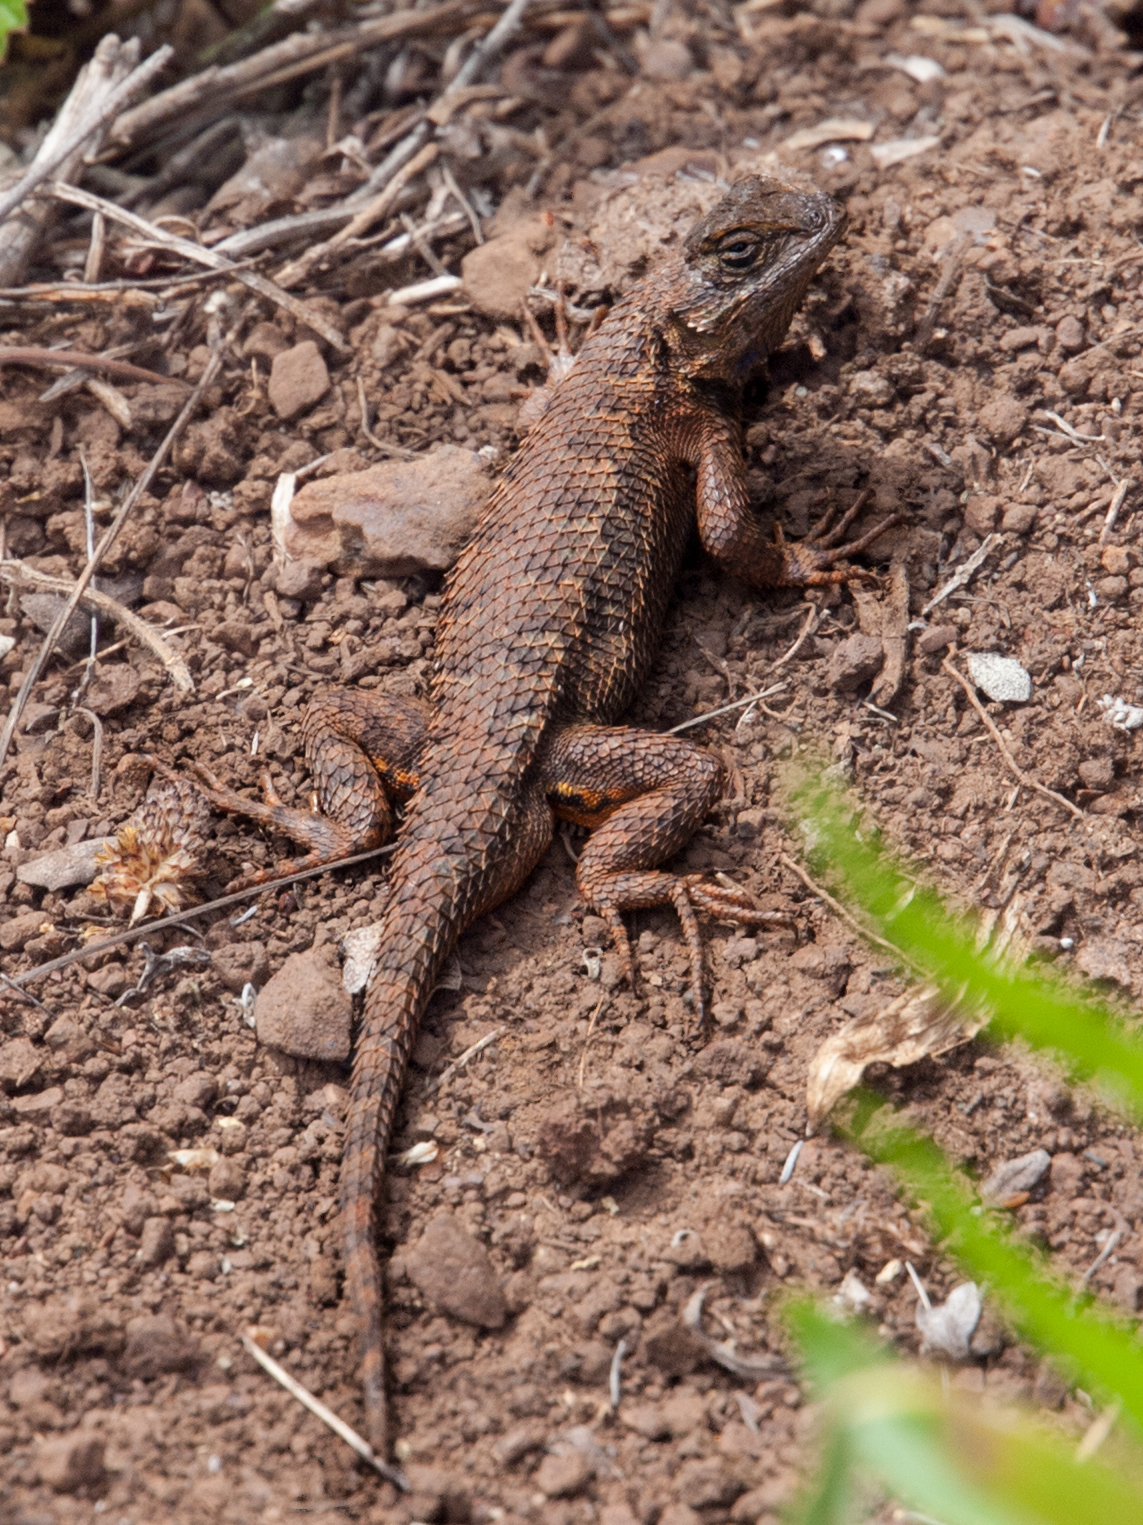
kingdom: Animalia
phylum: Chordata
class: Squamata
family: Phrynosomatidae
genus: Sceloporus
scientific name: Sceloporus occidentalis
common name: Western fence lizard
